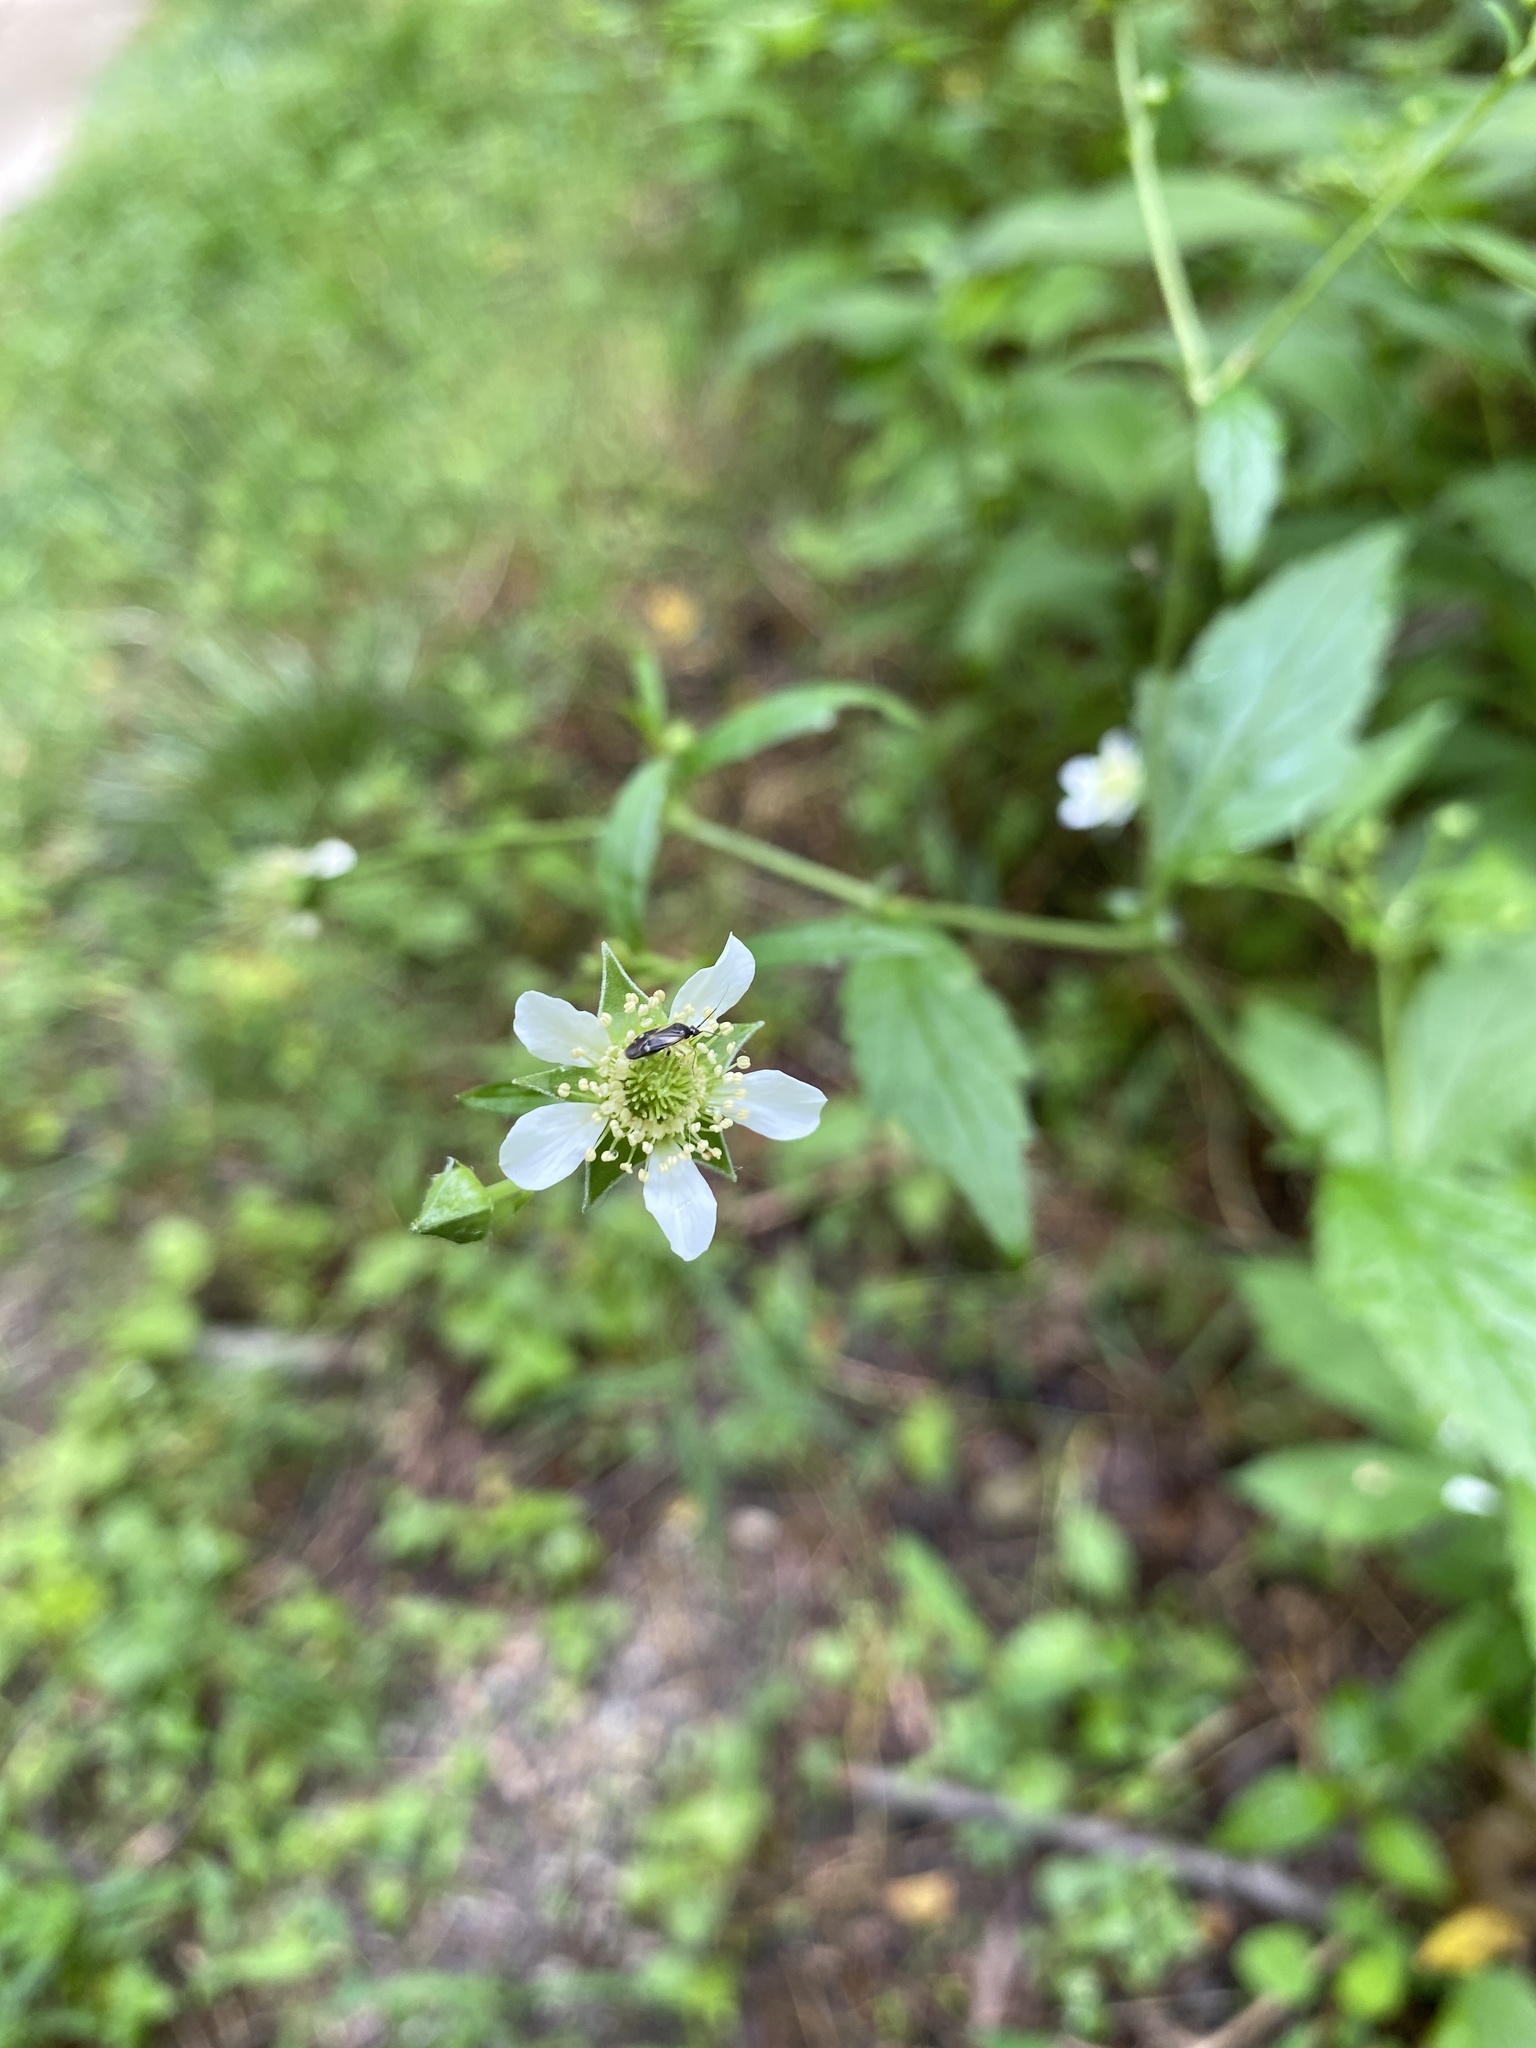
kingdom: Plantae
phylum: Tracheophyta
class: Magnoliopsida
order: Rosales
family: Rosaceae
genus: Geum
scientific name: Geum canadense
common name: White avens
